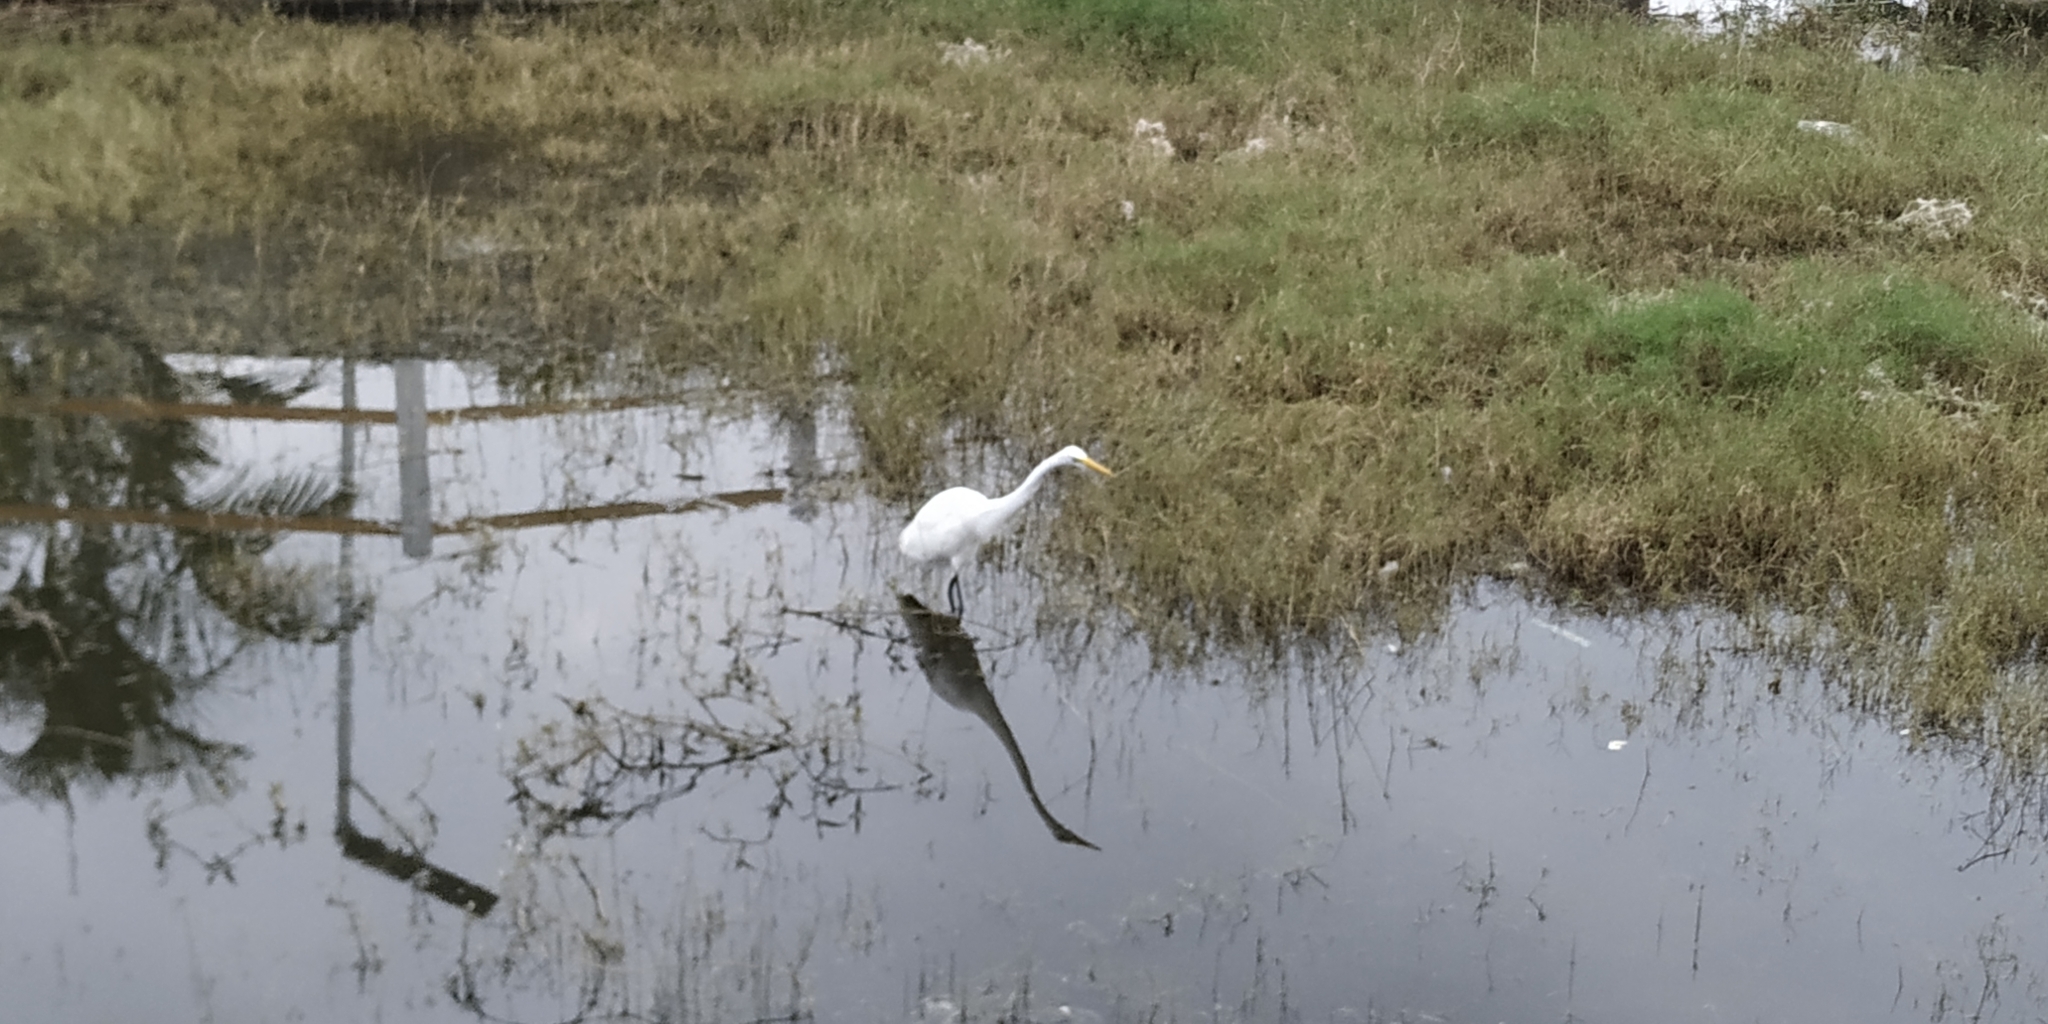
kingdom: Animalia
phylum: Chordata
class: Aves
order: Pelecaniformes
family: Ardeidae
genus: Ardea
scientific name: Ardea alba
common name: Great egret
